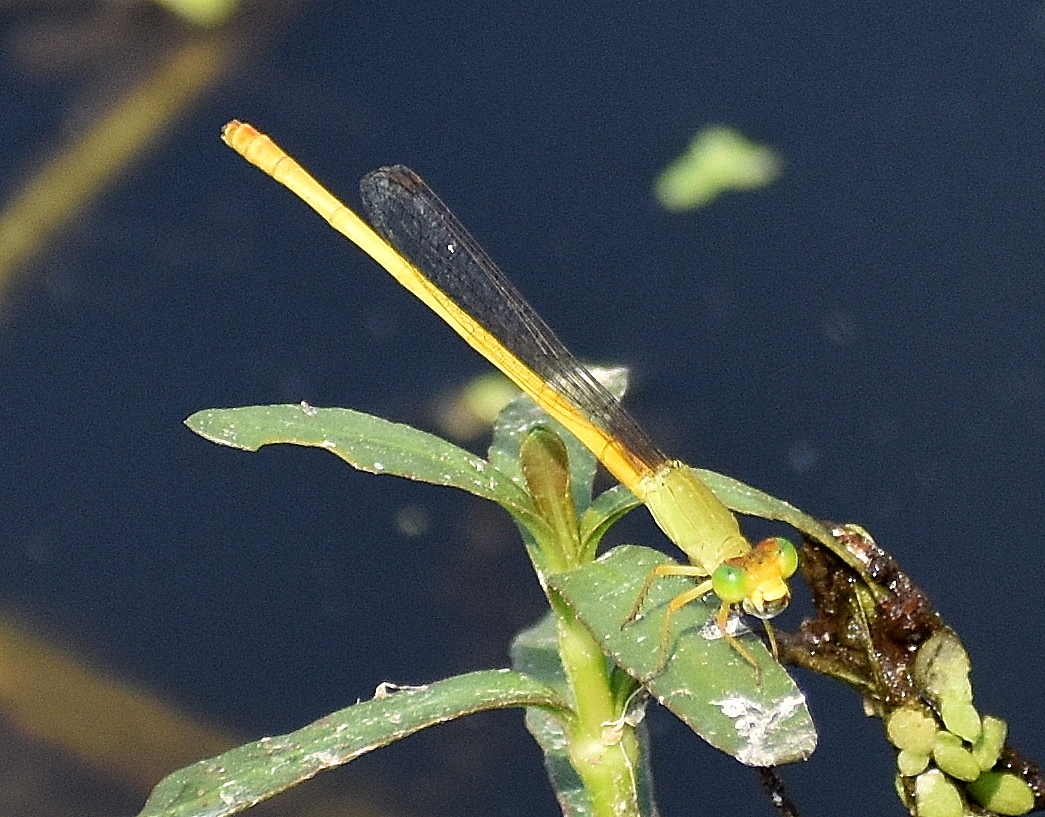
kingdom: Animalia
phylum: Arthropoda
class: Insecta
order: Odonata
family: Coenagrionidae
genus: Ceriagrion
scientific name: Ceriagrion coromandelianum
